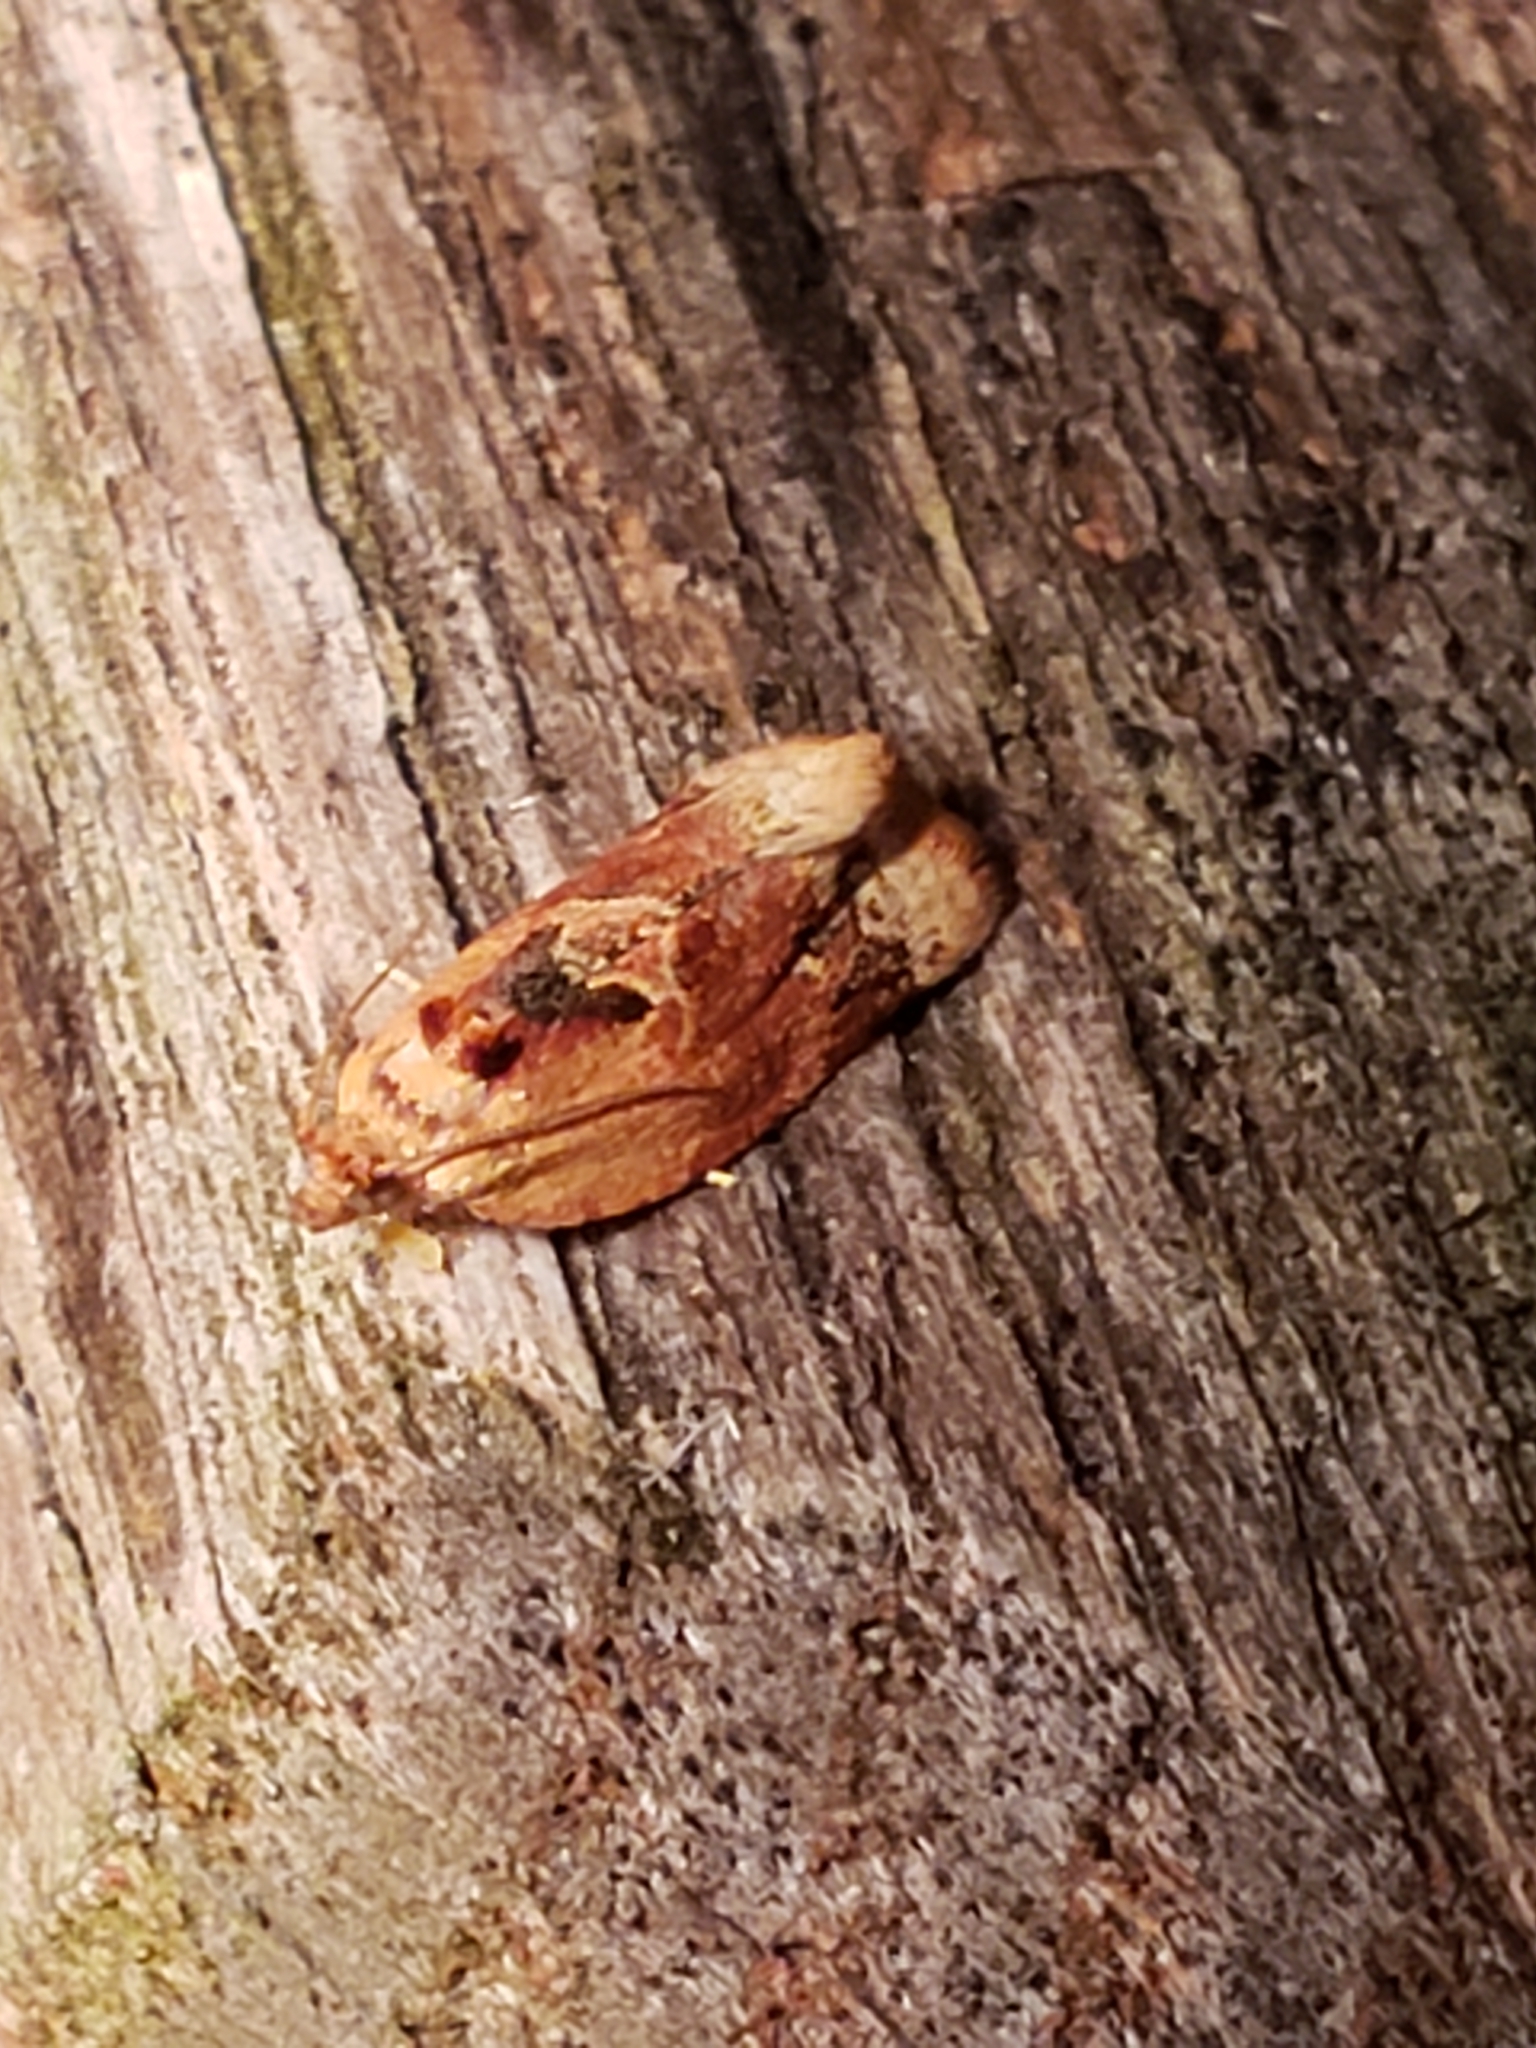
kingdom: Animalia
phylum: Arthropoda
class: Insecta
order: Lepidoptera
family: Tortricidae
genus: Argyrotaenia
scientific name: Argyrotaenia velutinana
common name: Red-banded leafroller moth
